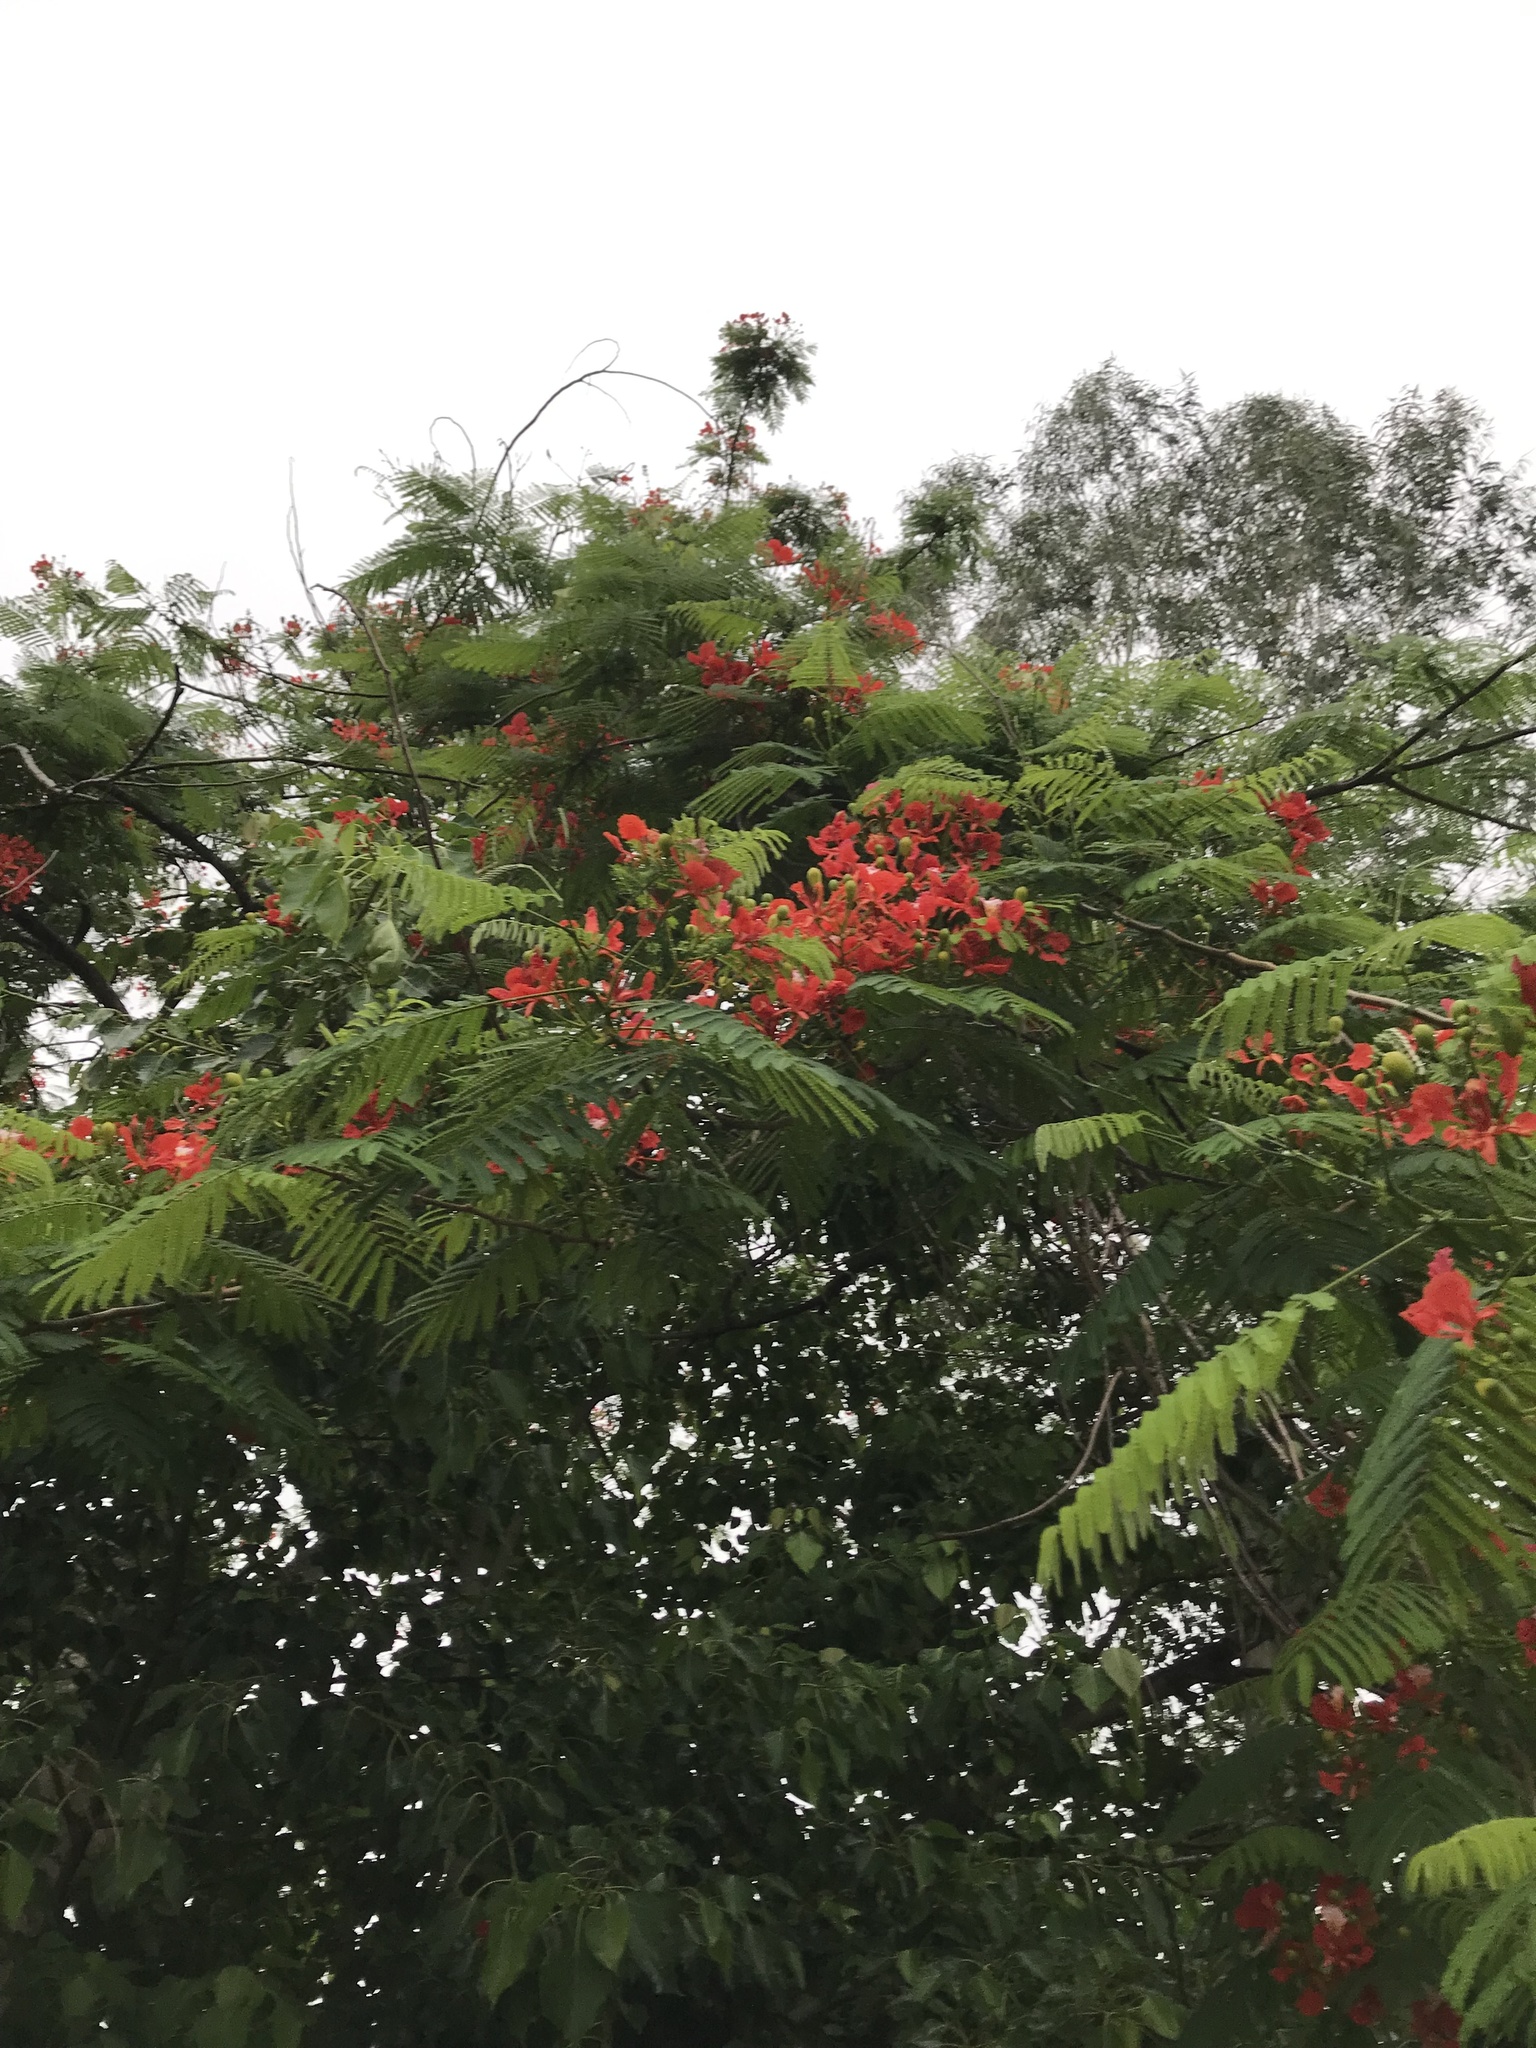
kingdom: Plantae
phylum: Tracheophyta
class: Magnoliopsida
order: Fabales
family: Fabaceae
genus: Delonix
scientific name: Delonix regia
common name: Royal poinciana
